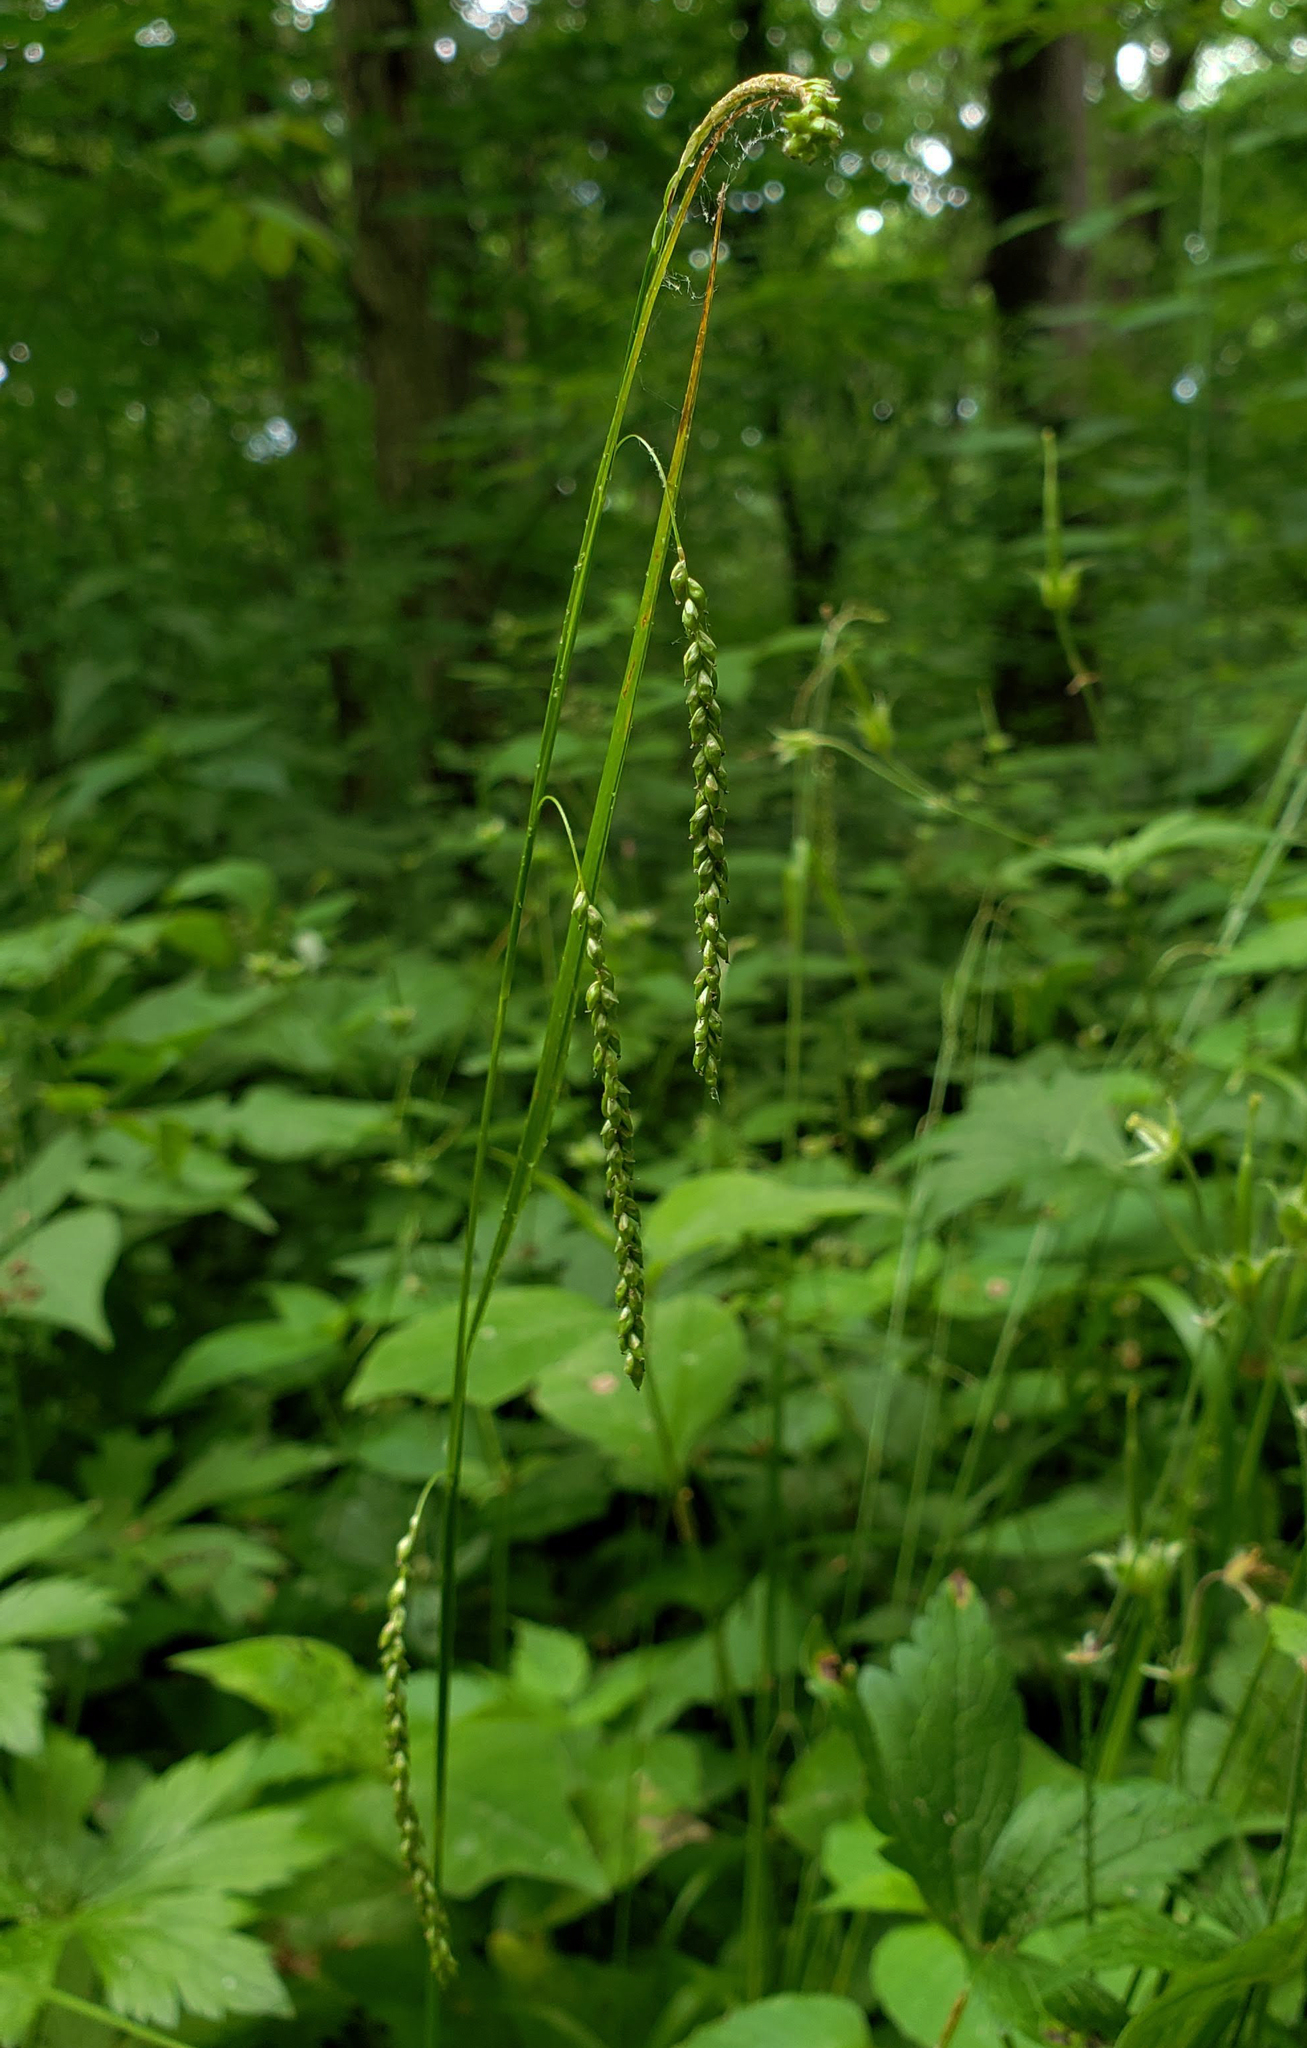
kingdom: Plantae
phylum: Tracheophyta
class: Liliopsida
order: Poales
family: Cyperaceae
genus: Carex
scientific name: Carex gracillima
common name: Graceful sedge
